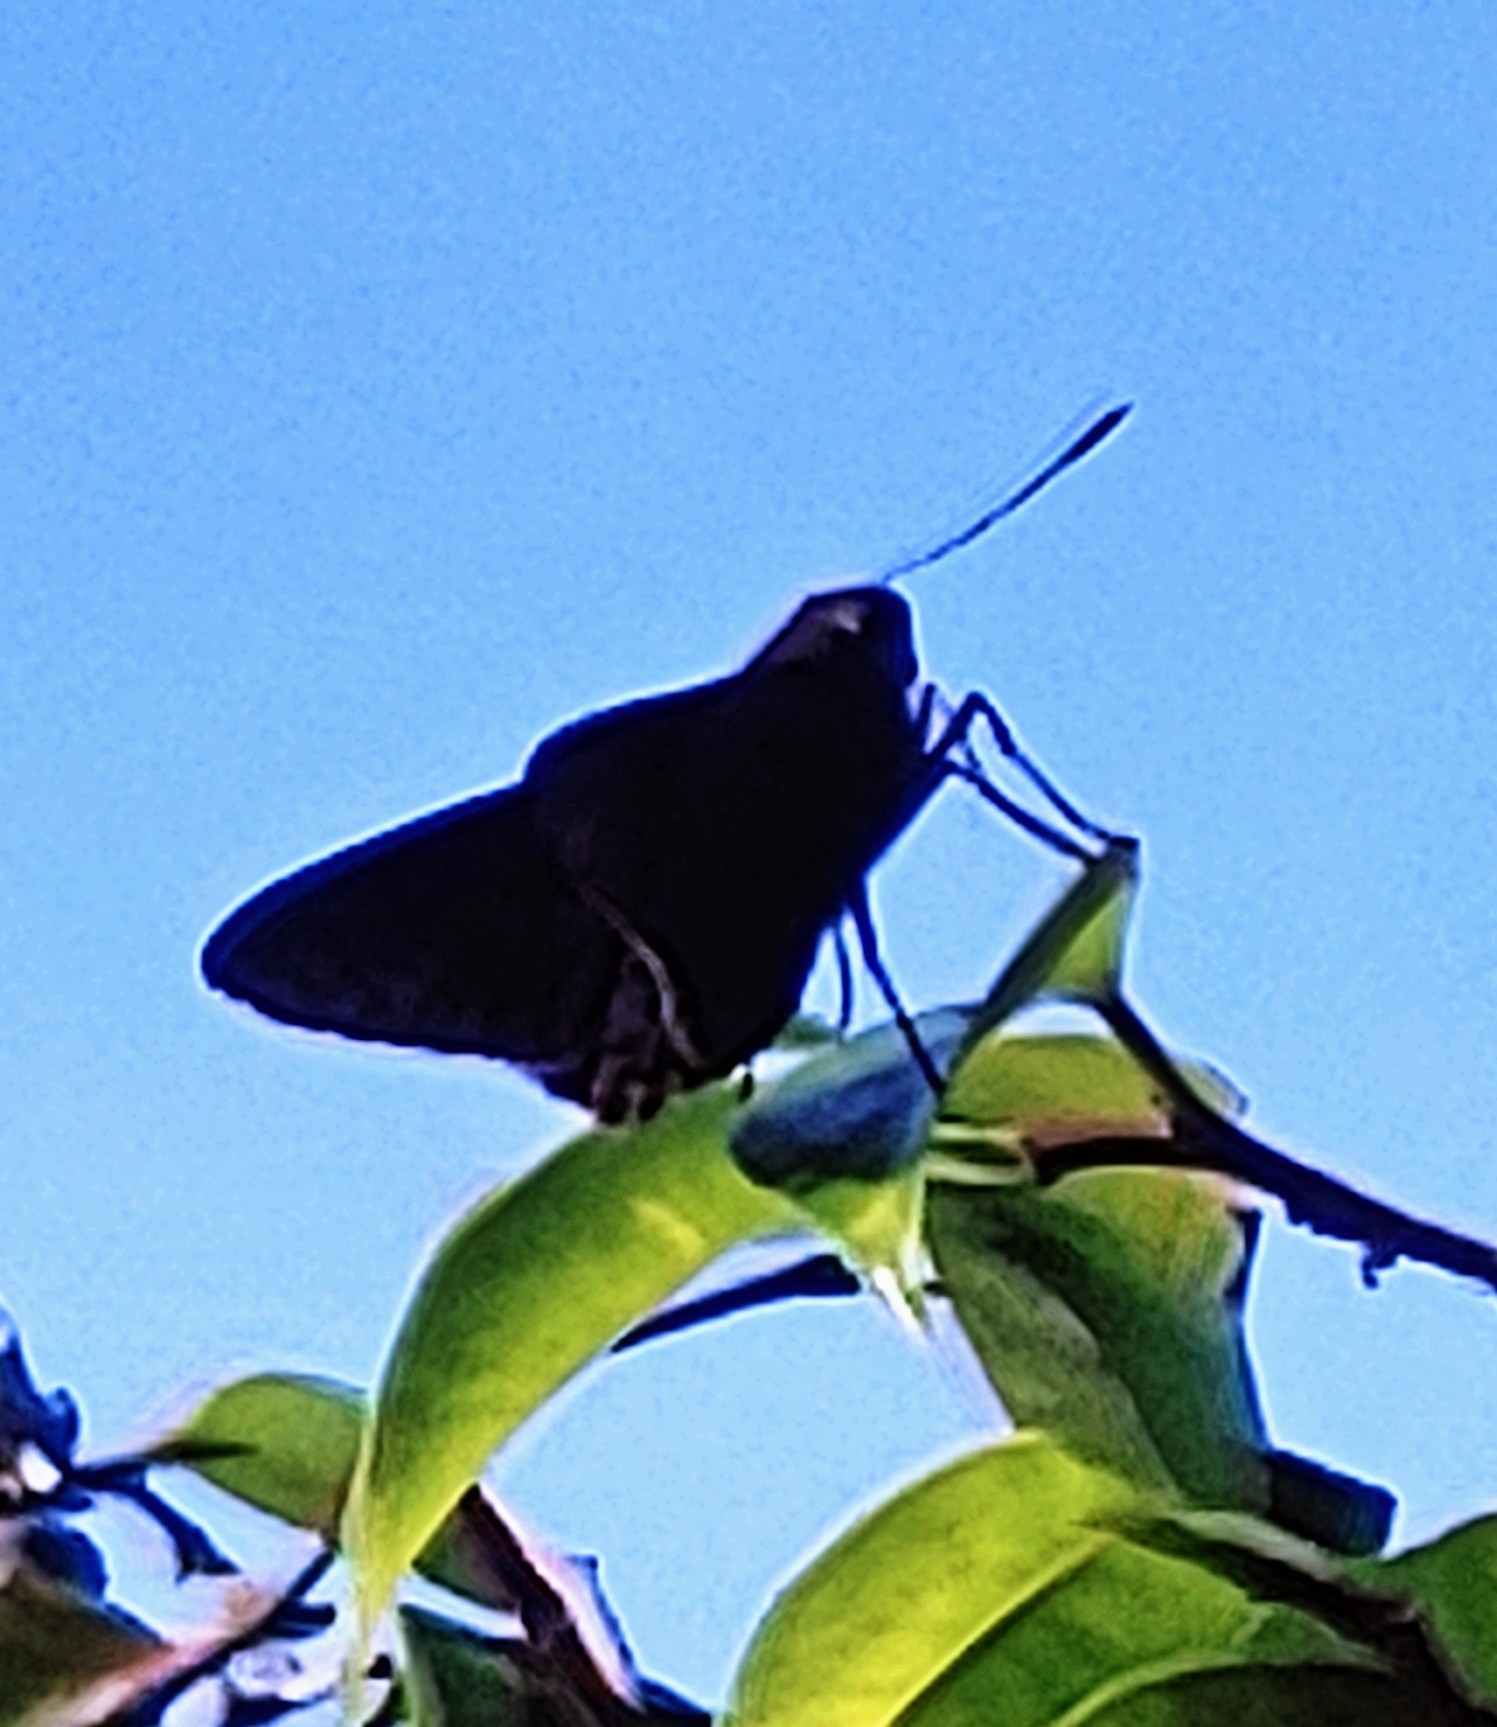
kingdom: Animalia
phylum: Arthropoda
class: Insecta
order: Lepidoptera
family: Hesperiidae
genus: Asbolis
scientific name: Asbolis capucinus
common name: Monk skipper
